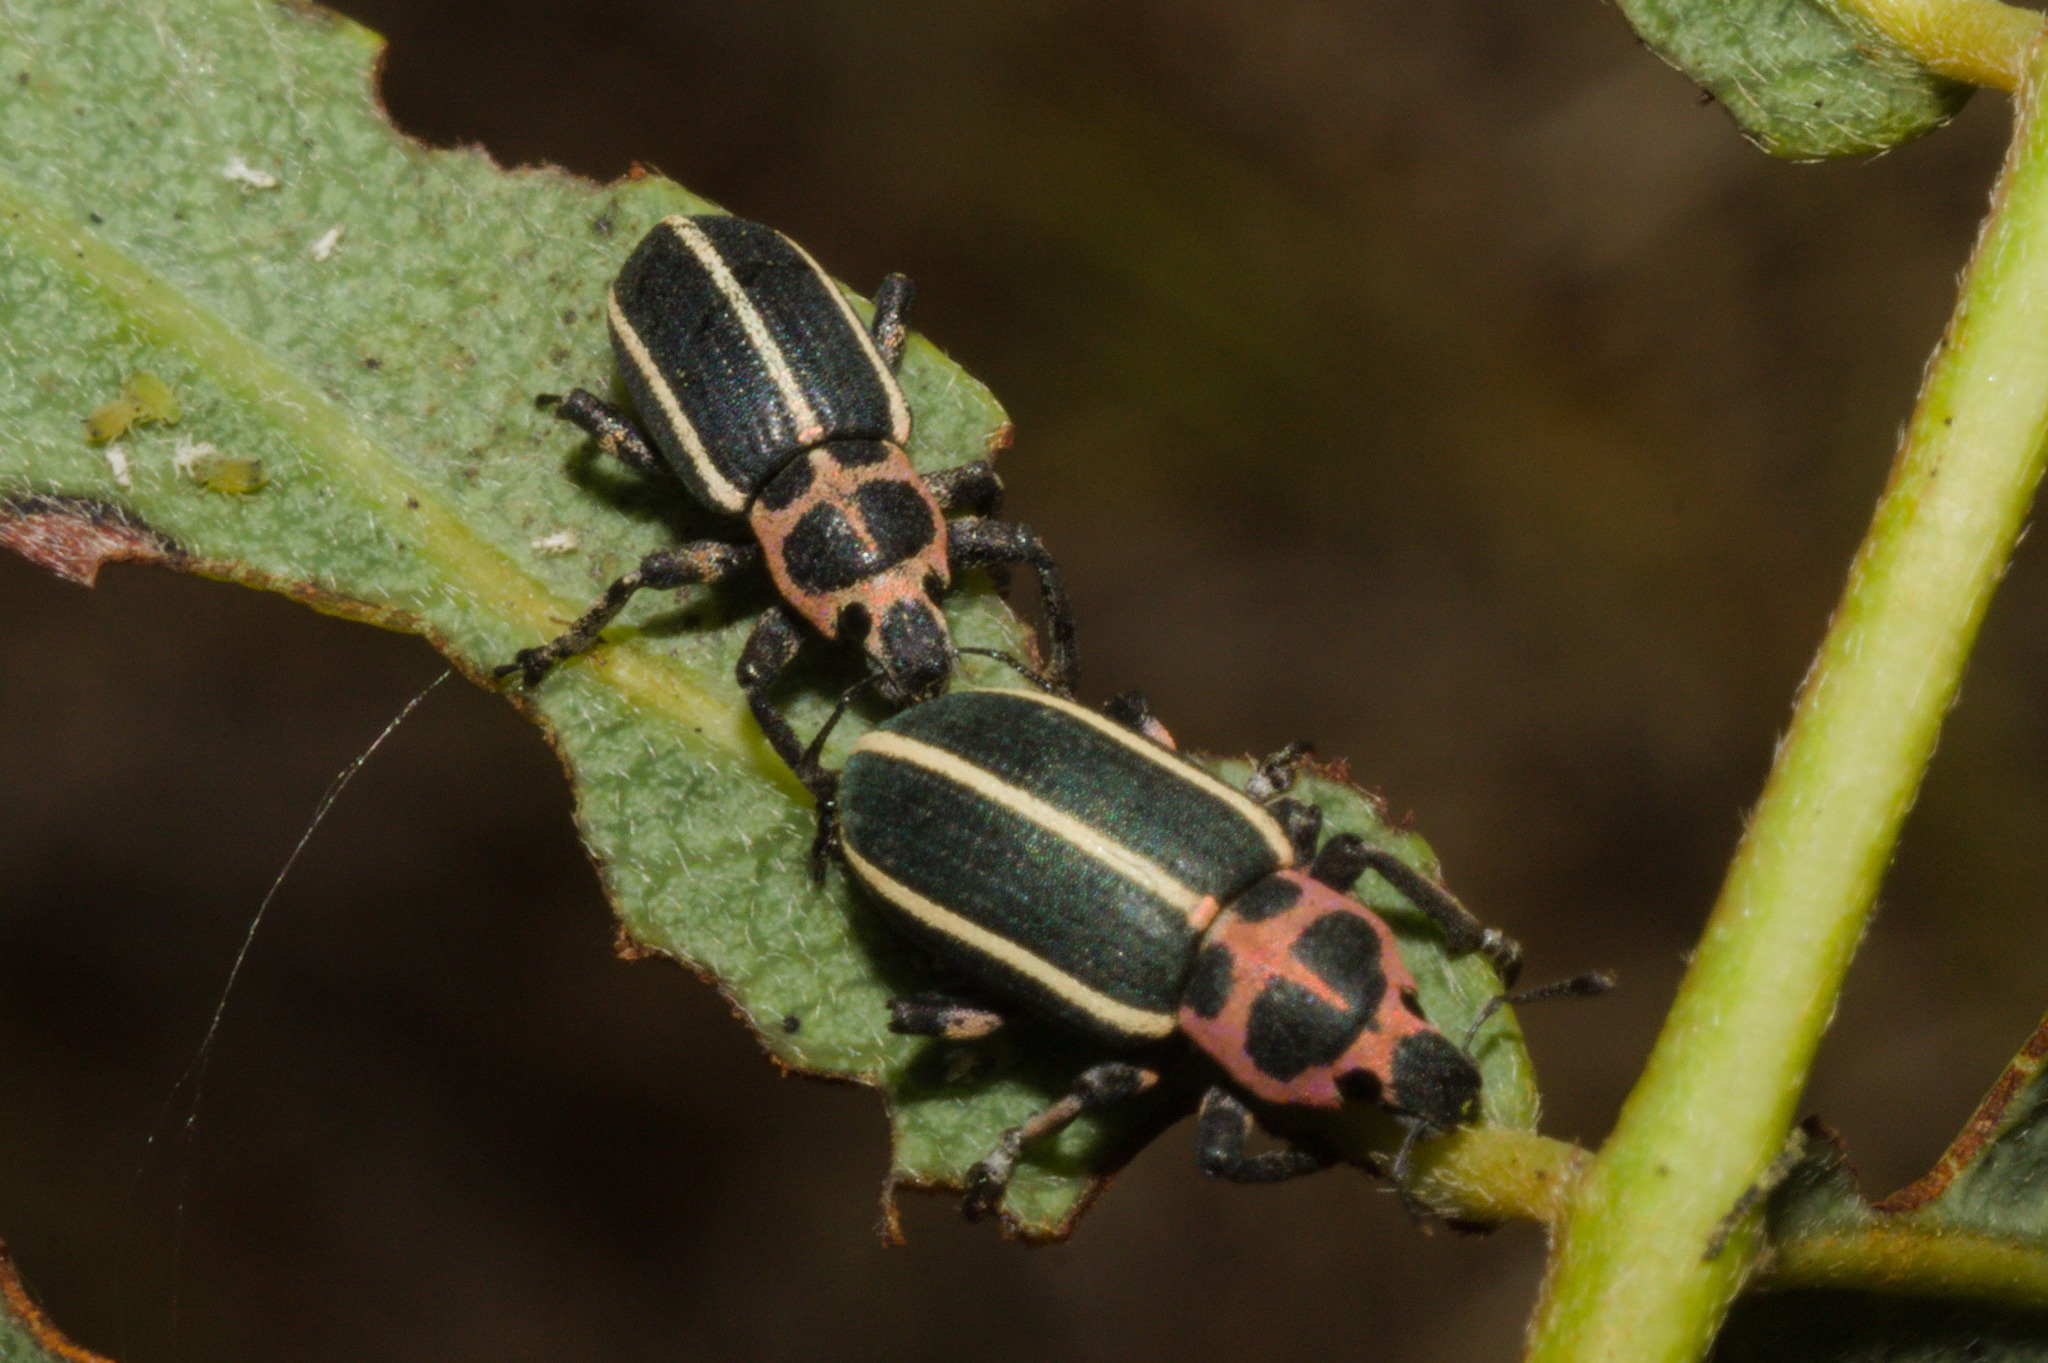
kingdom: Animalia
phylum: Arthropoda
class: Insecta
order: Coleoptera
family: Curculionidae
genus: Eudiagogus
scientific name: Eudiagogus episcopalis
